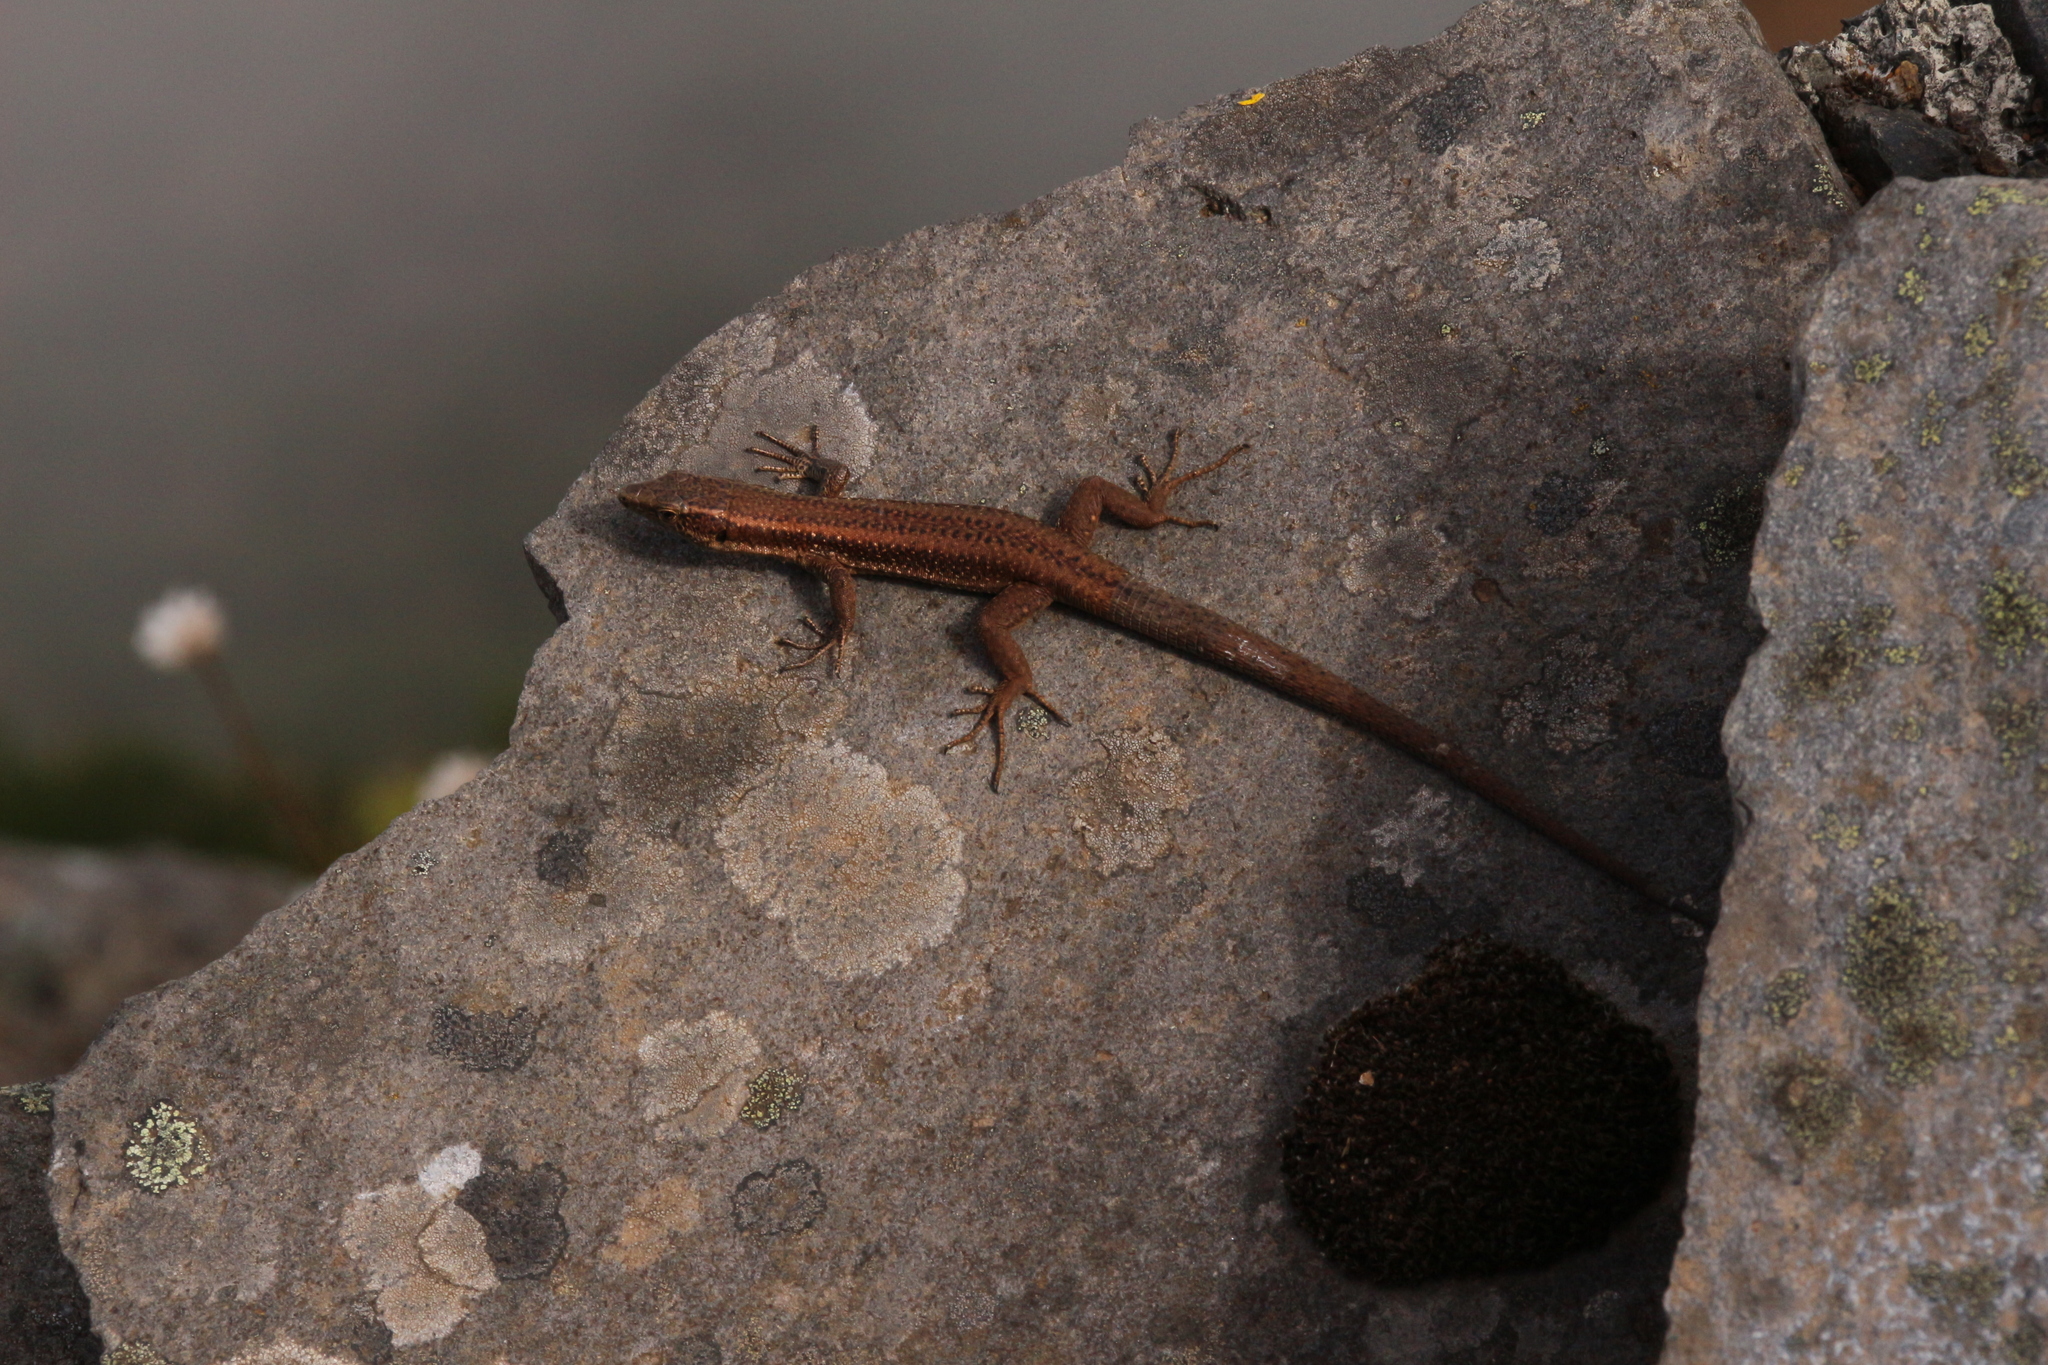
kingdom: Animalia
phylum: Chordata
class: Squamata
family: Lacertidae
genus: Teira
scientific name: Teira dugesii
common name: Madeira lizard
